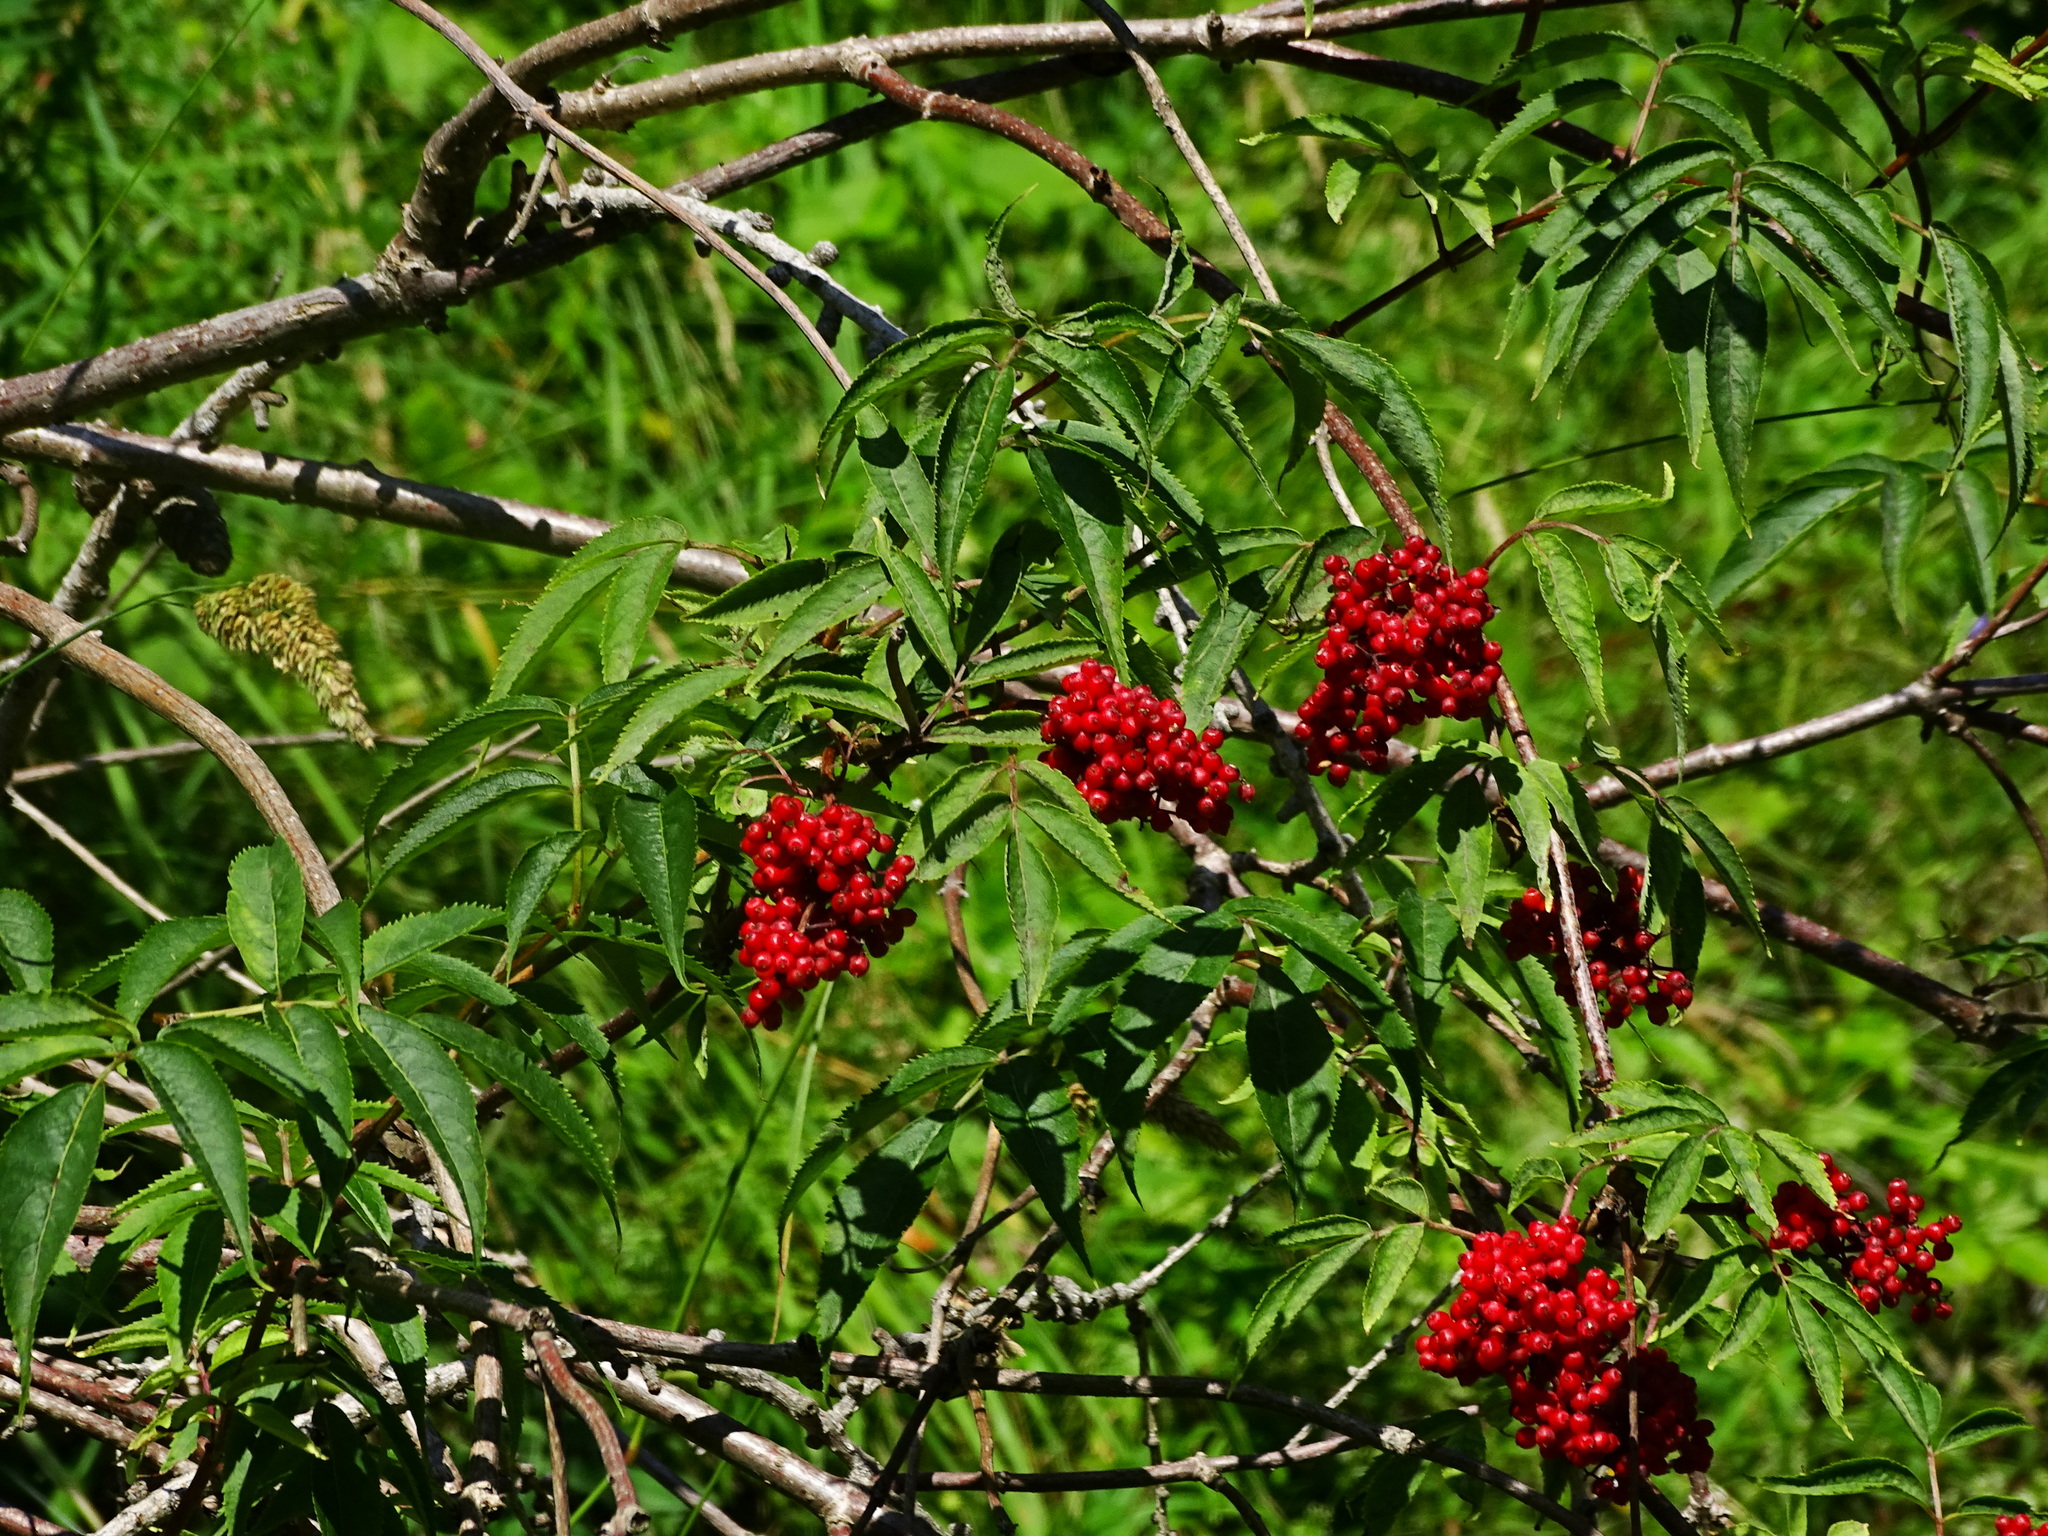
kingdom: Plantae
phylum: Tracheophyta
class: Magnoliopsida
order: Dipsacales
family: Viburnaceae
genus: Sambucus
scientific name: Sambucus racemosa
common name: Red-berried elder
